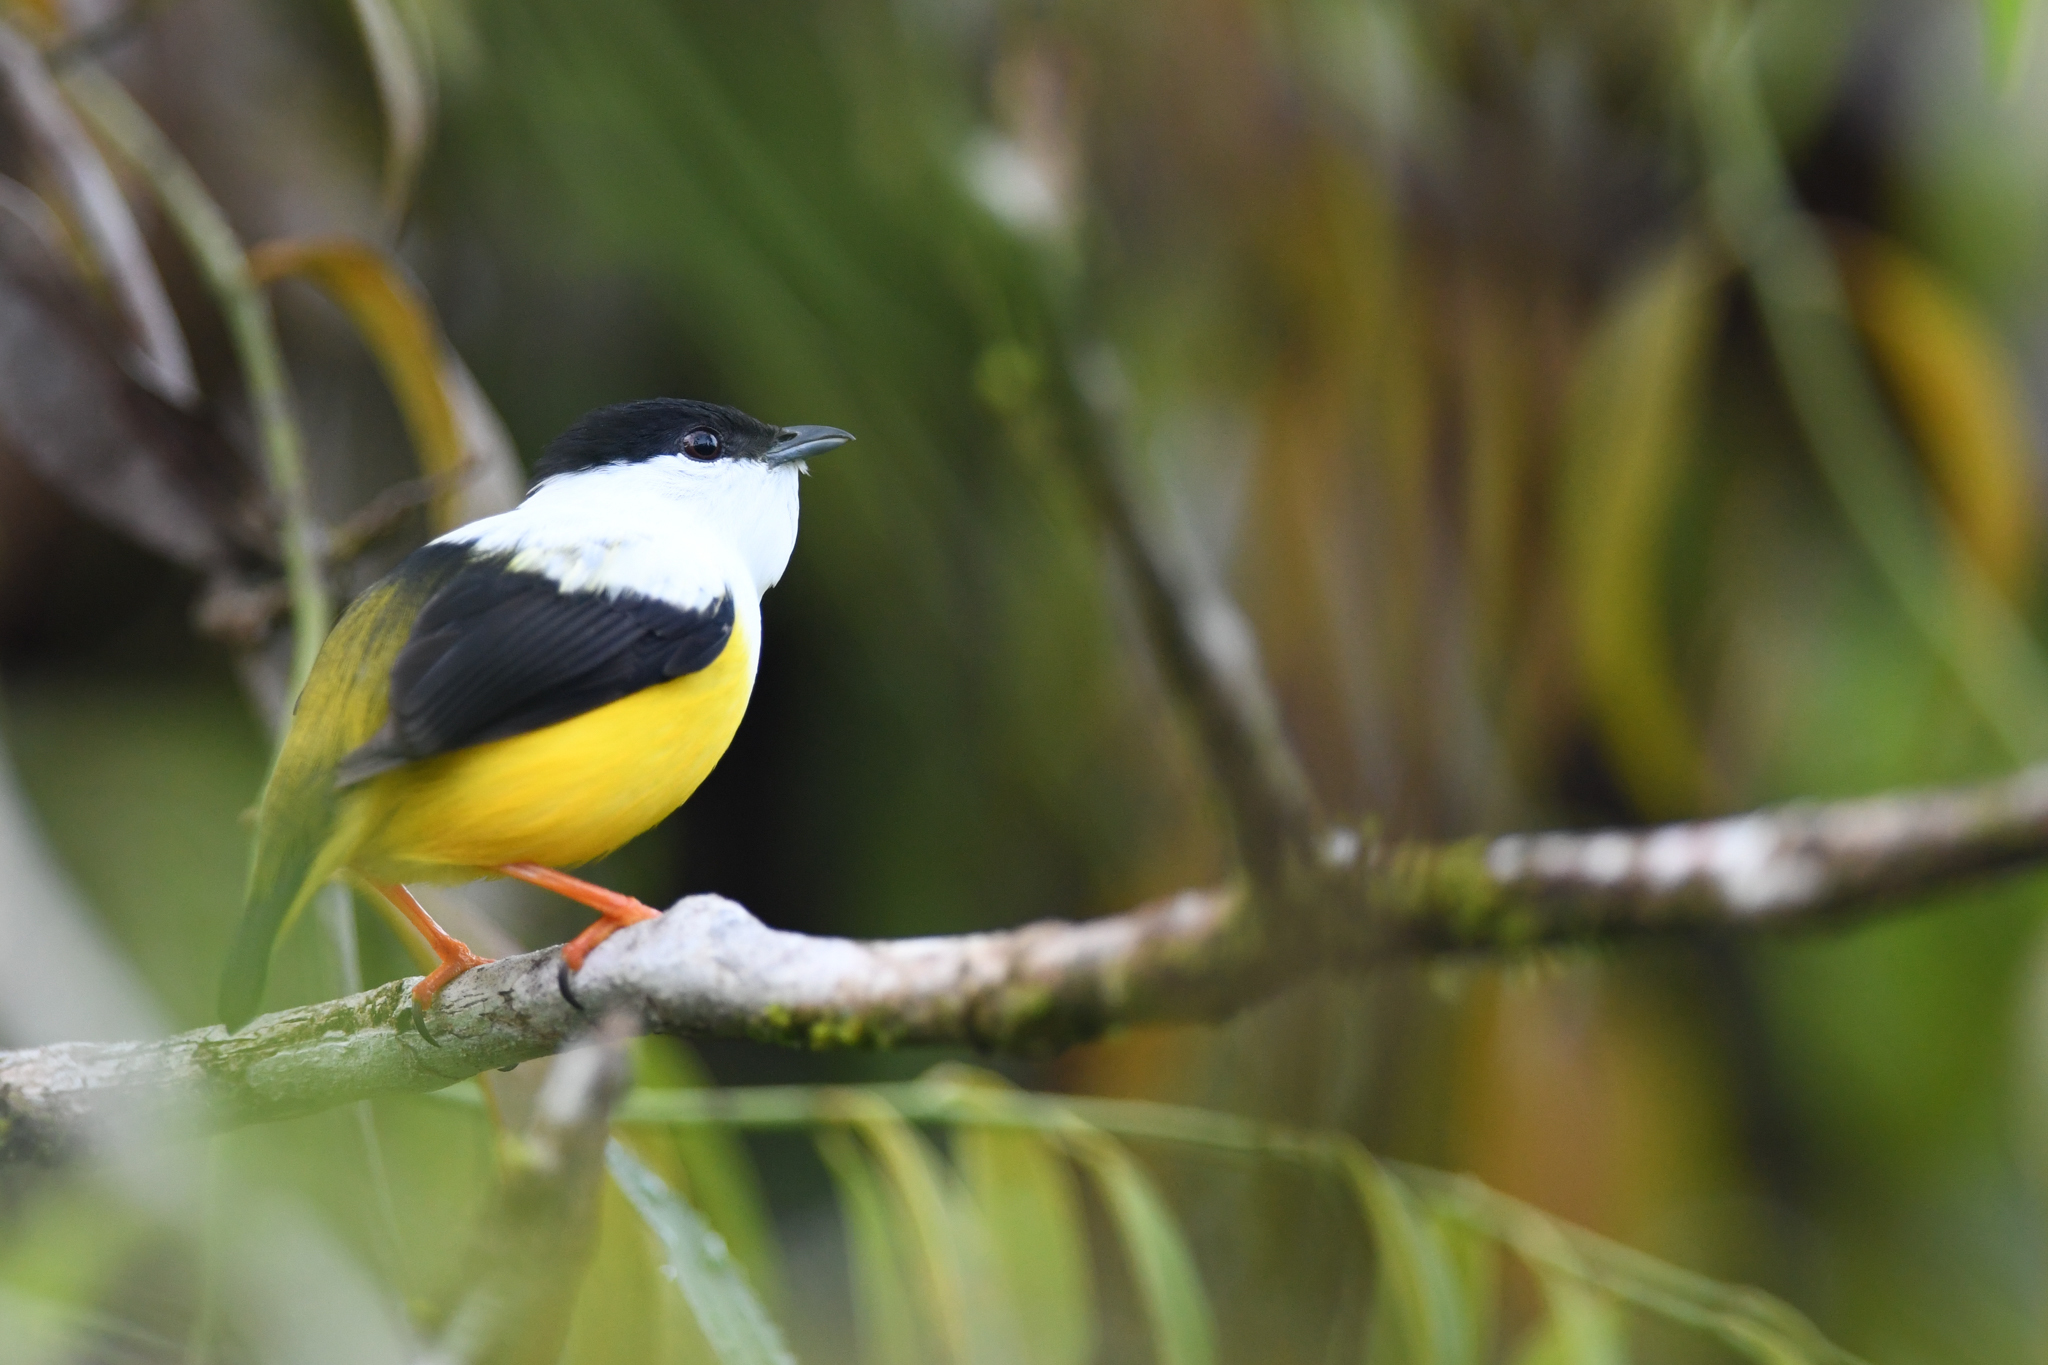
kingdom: Animalia
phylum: Chordata
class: Aves
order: Passeriformes
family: Pipridae
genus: Manacus
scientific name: Manacus candei
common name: White-collared manakin
